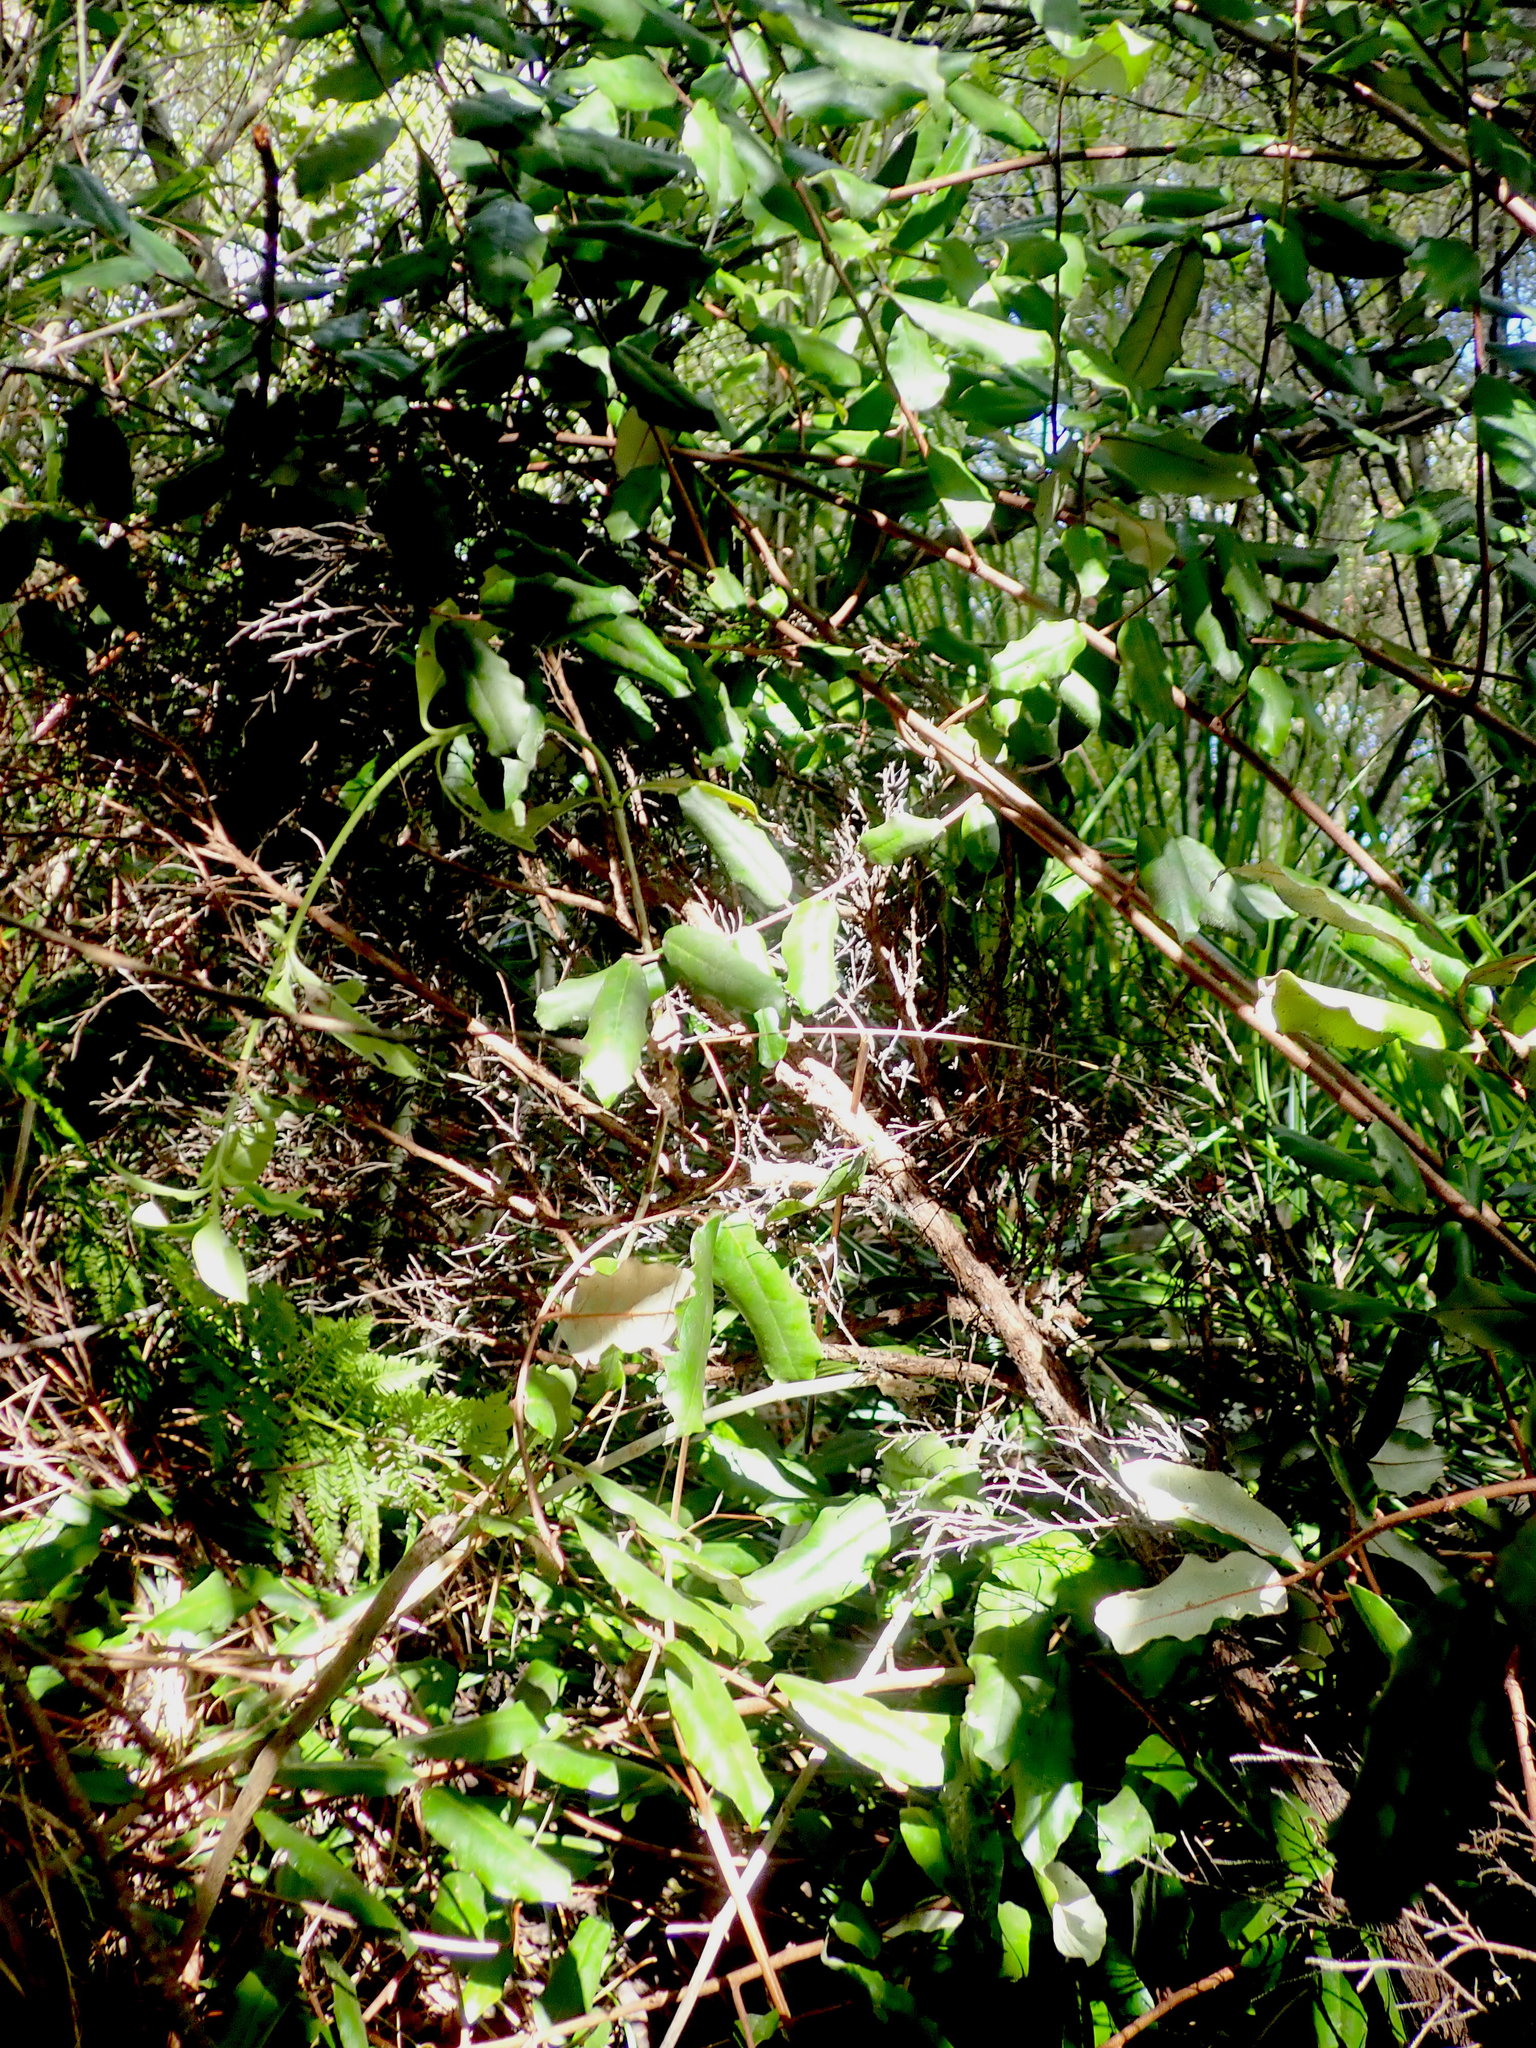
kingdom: Plantae
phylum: Tracheophyta
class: Magnoliopsida
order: Rosales
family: Elaeagnaceae
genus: Elaeagnus
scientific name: Elaeagnus reflexa
